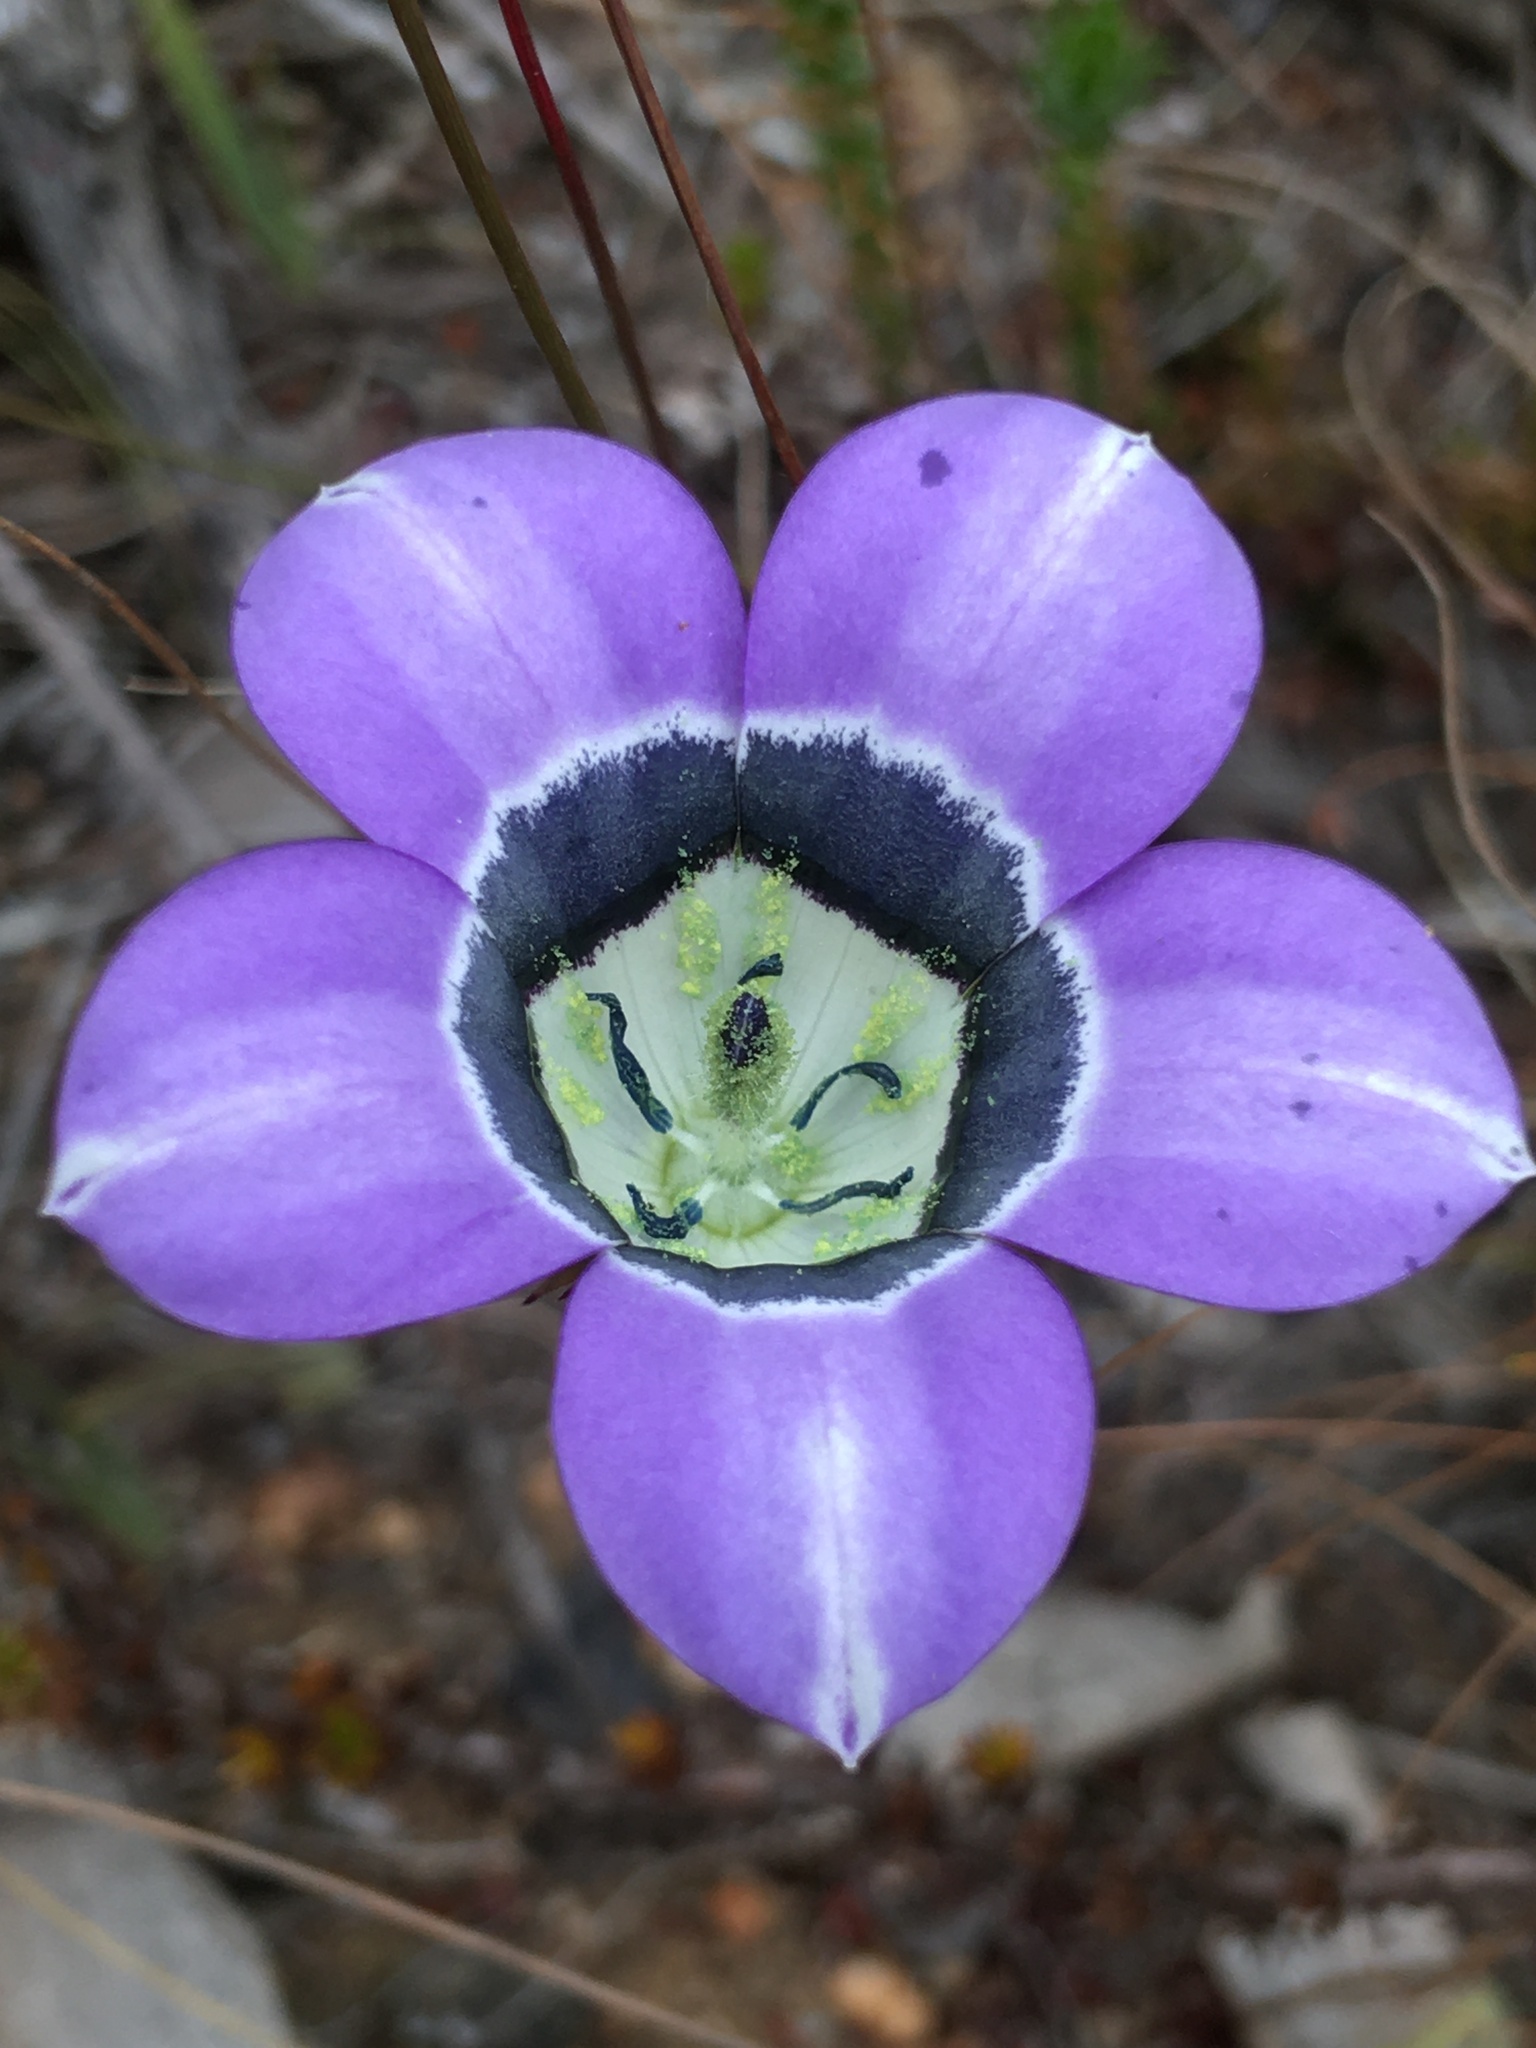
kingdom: Plantae
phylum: Tracheophyta
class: Magnoliopsida
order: Asterales
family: Campanulaceae
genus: Roella
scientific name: Roella ciliata
